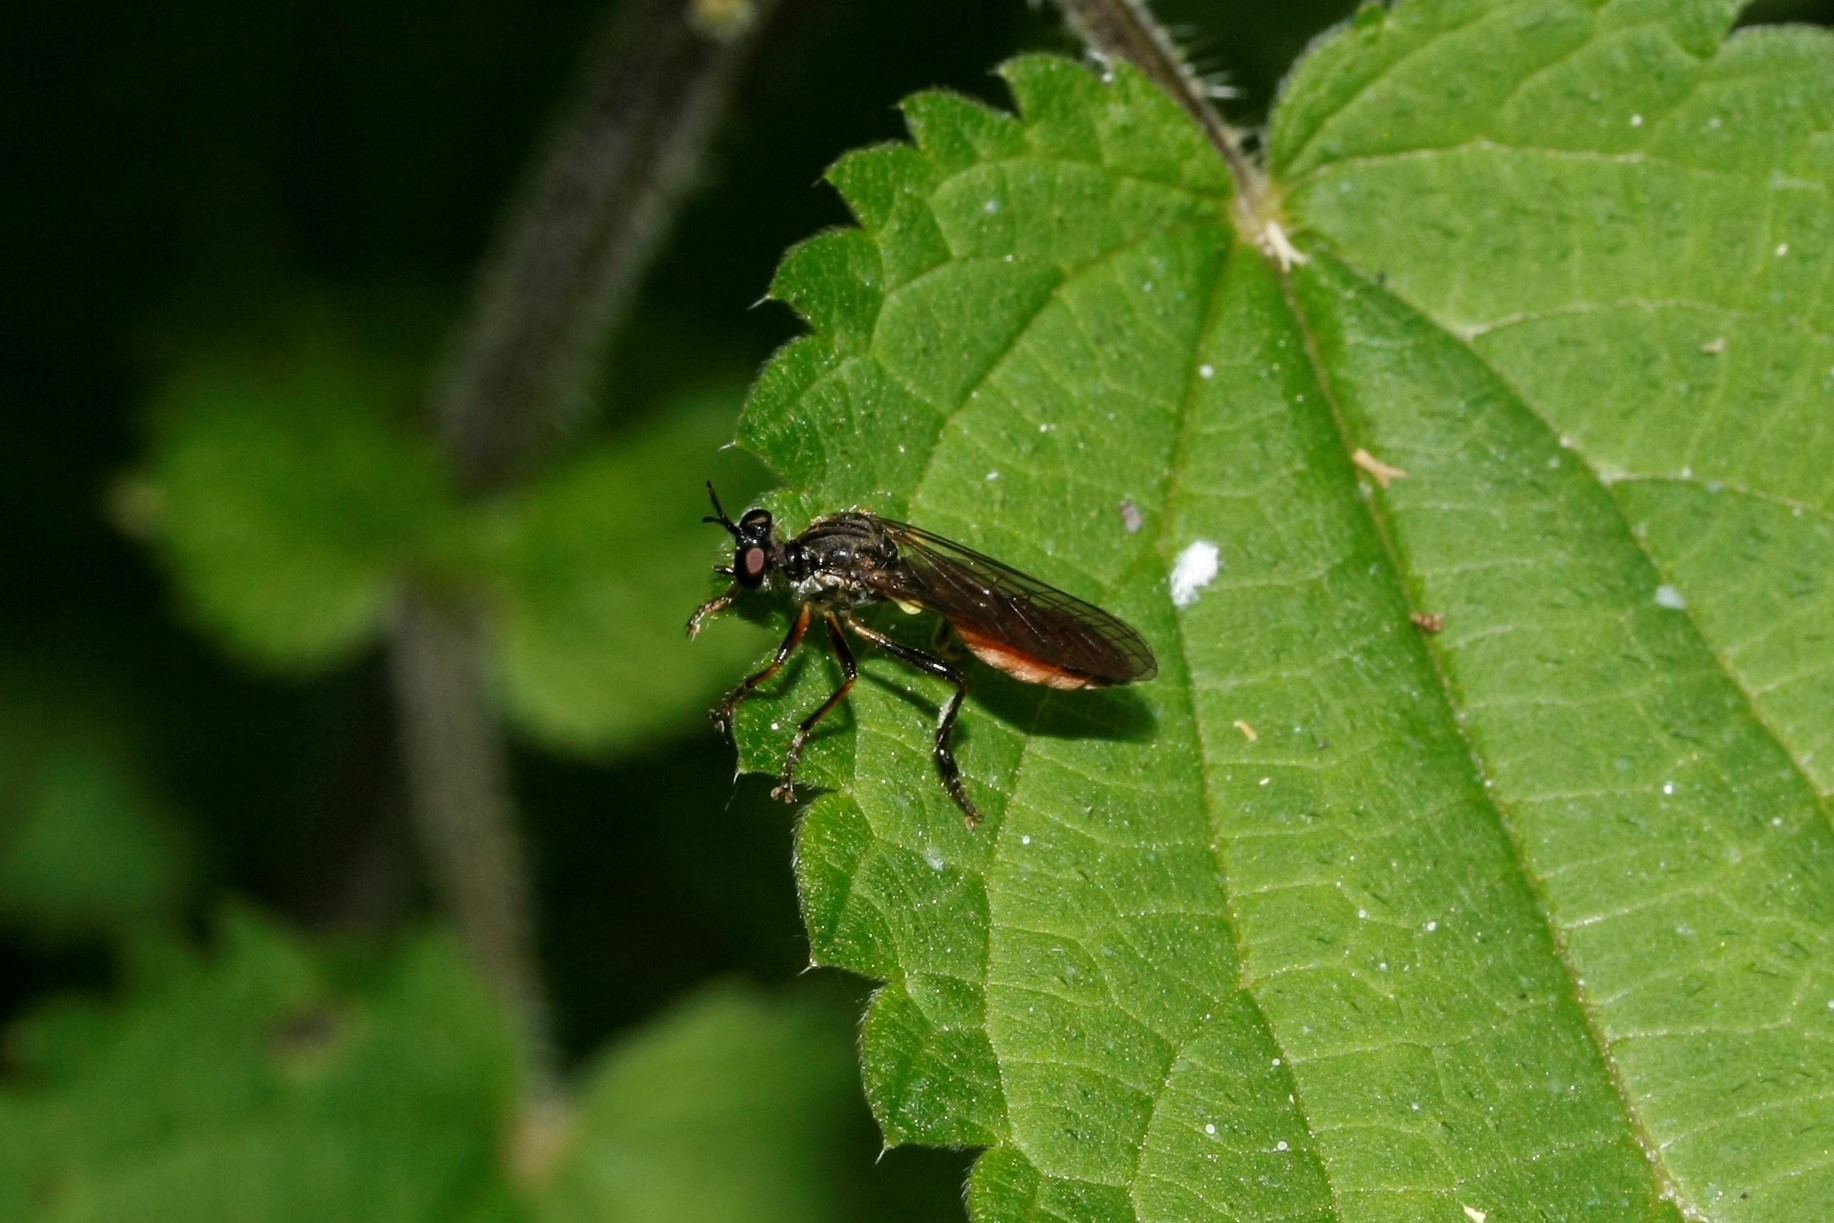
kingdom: Animalia
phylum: Arthropoda
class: Insecta
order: Diptera
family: Asilidae
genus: Dioctria
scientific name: Dioctria hyalipennis
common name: Stripe-legged robberfly
